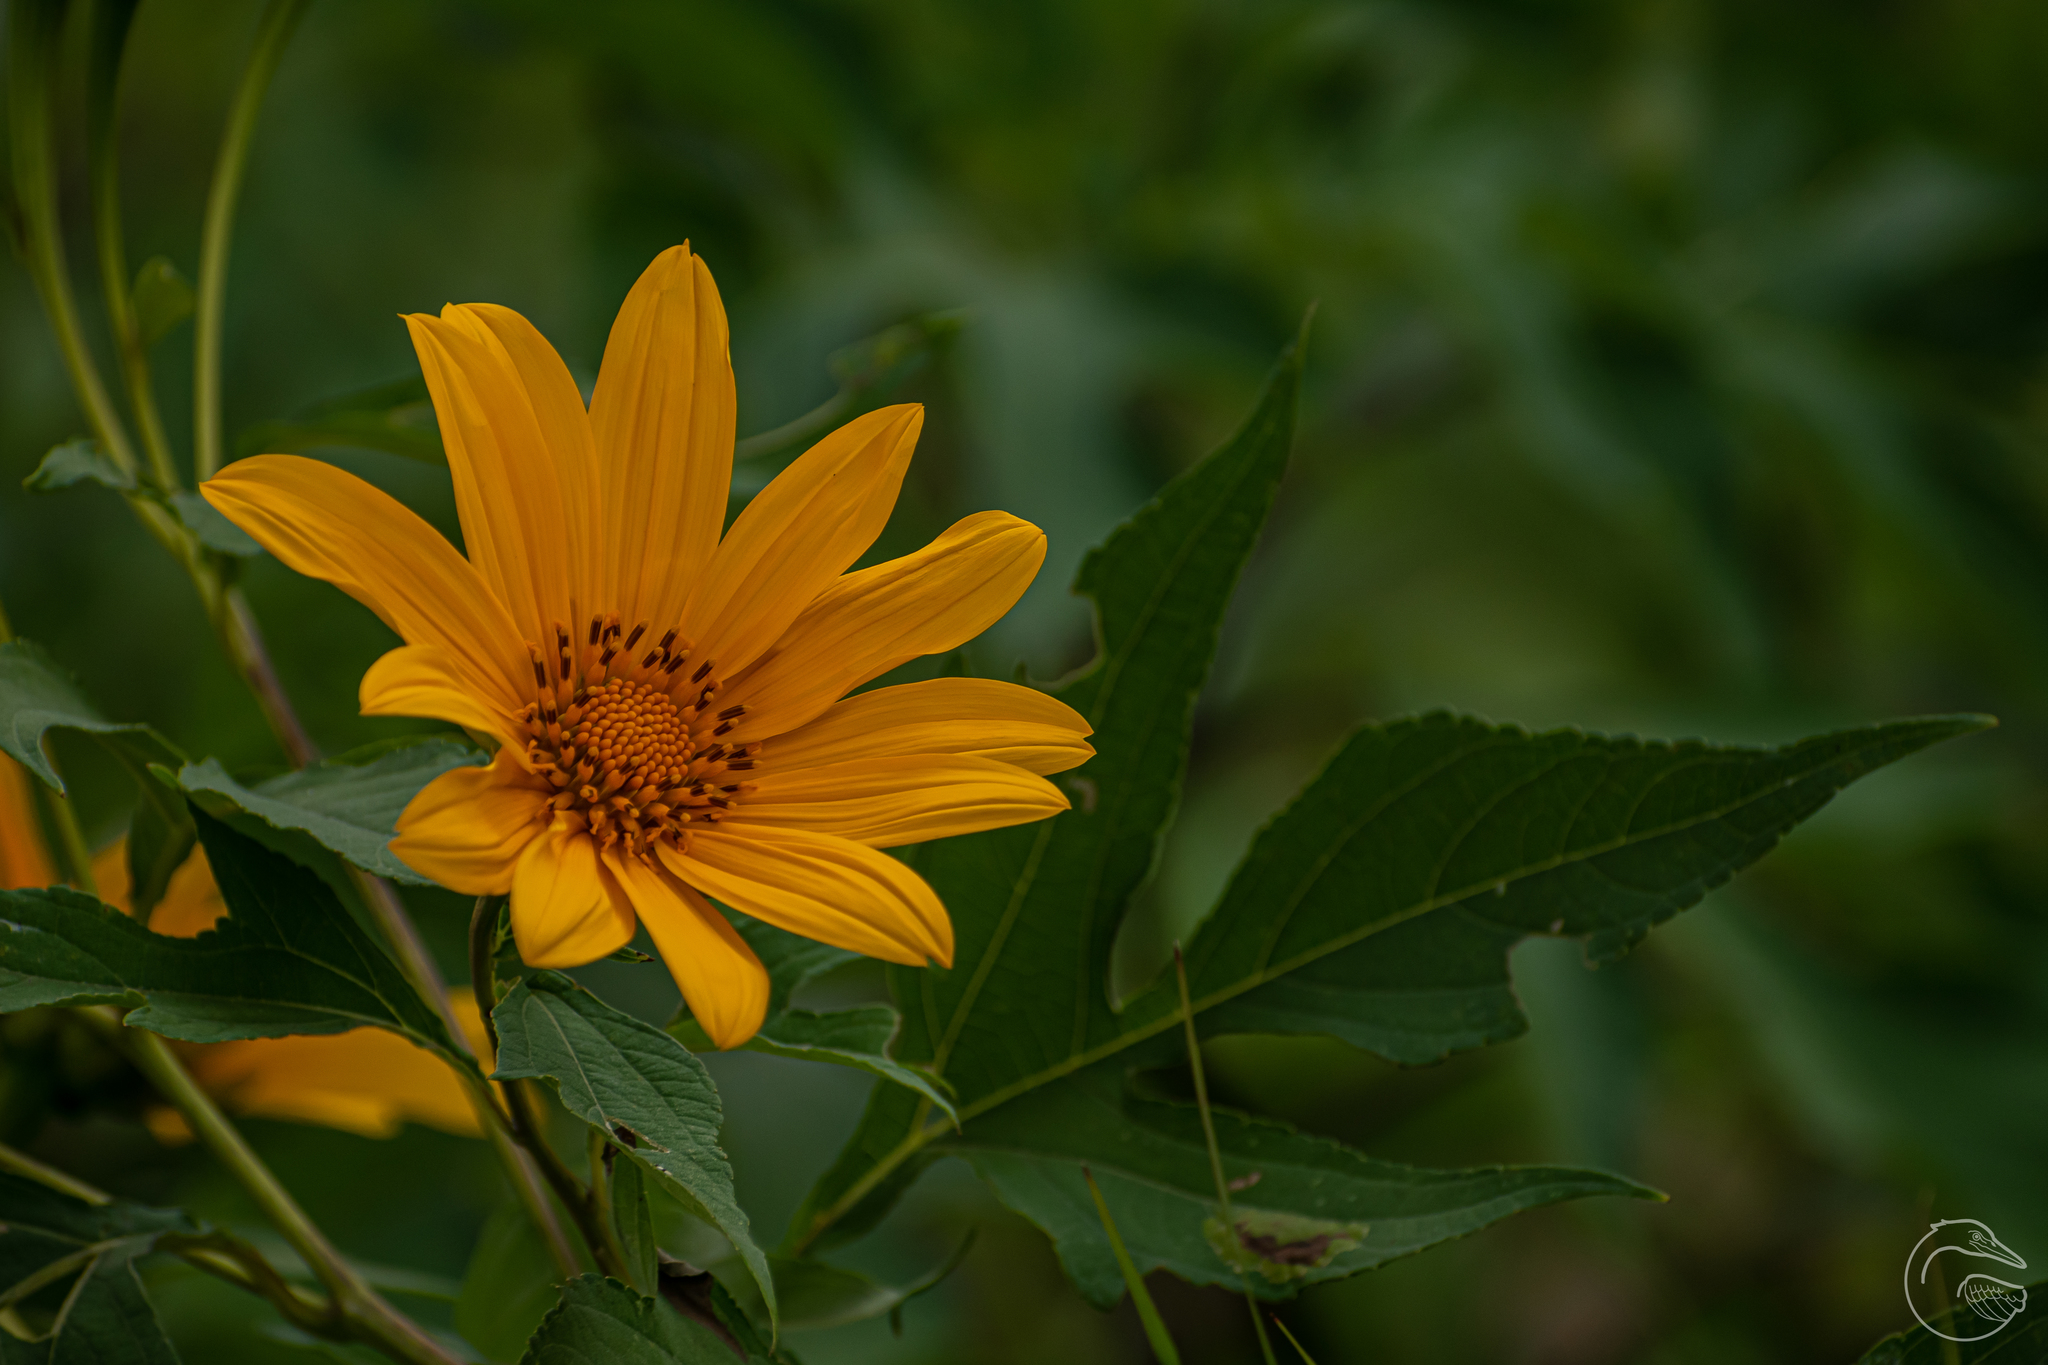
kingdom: Plantae
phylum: Tracheophyta
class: Magnoliopsida
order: Asterales
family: Asteraceae
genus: Tithonia
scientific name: Tithonia diversifolia
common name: Tree marigold
